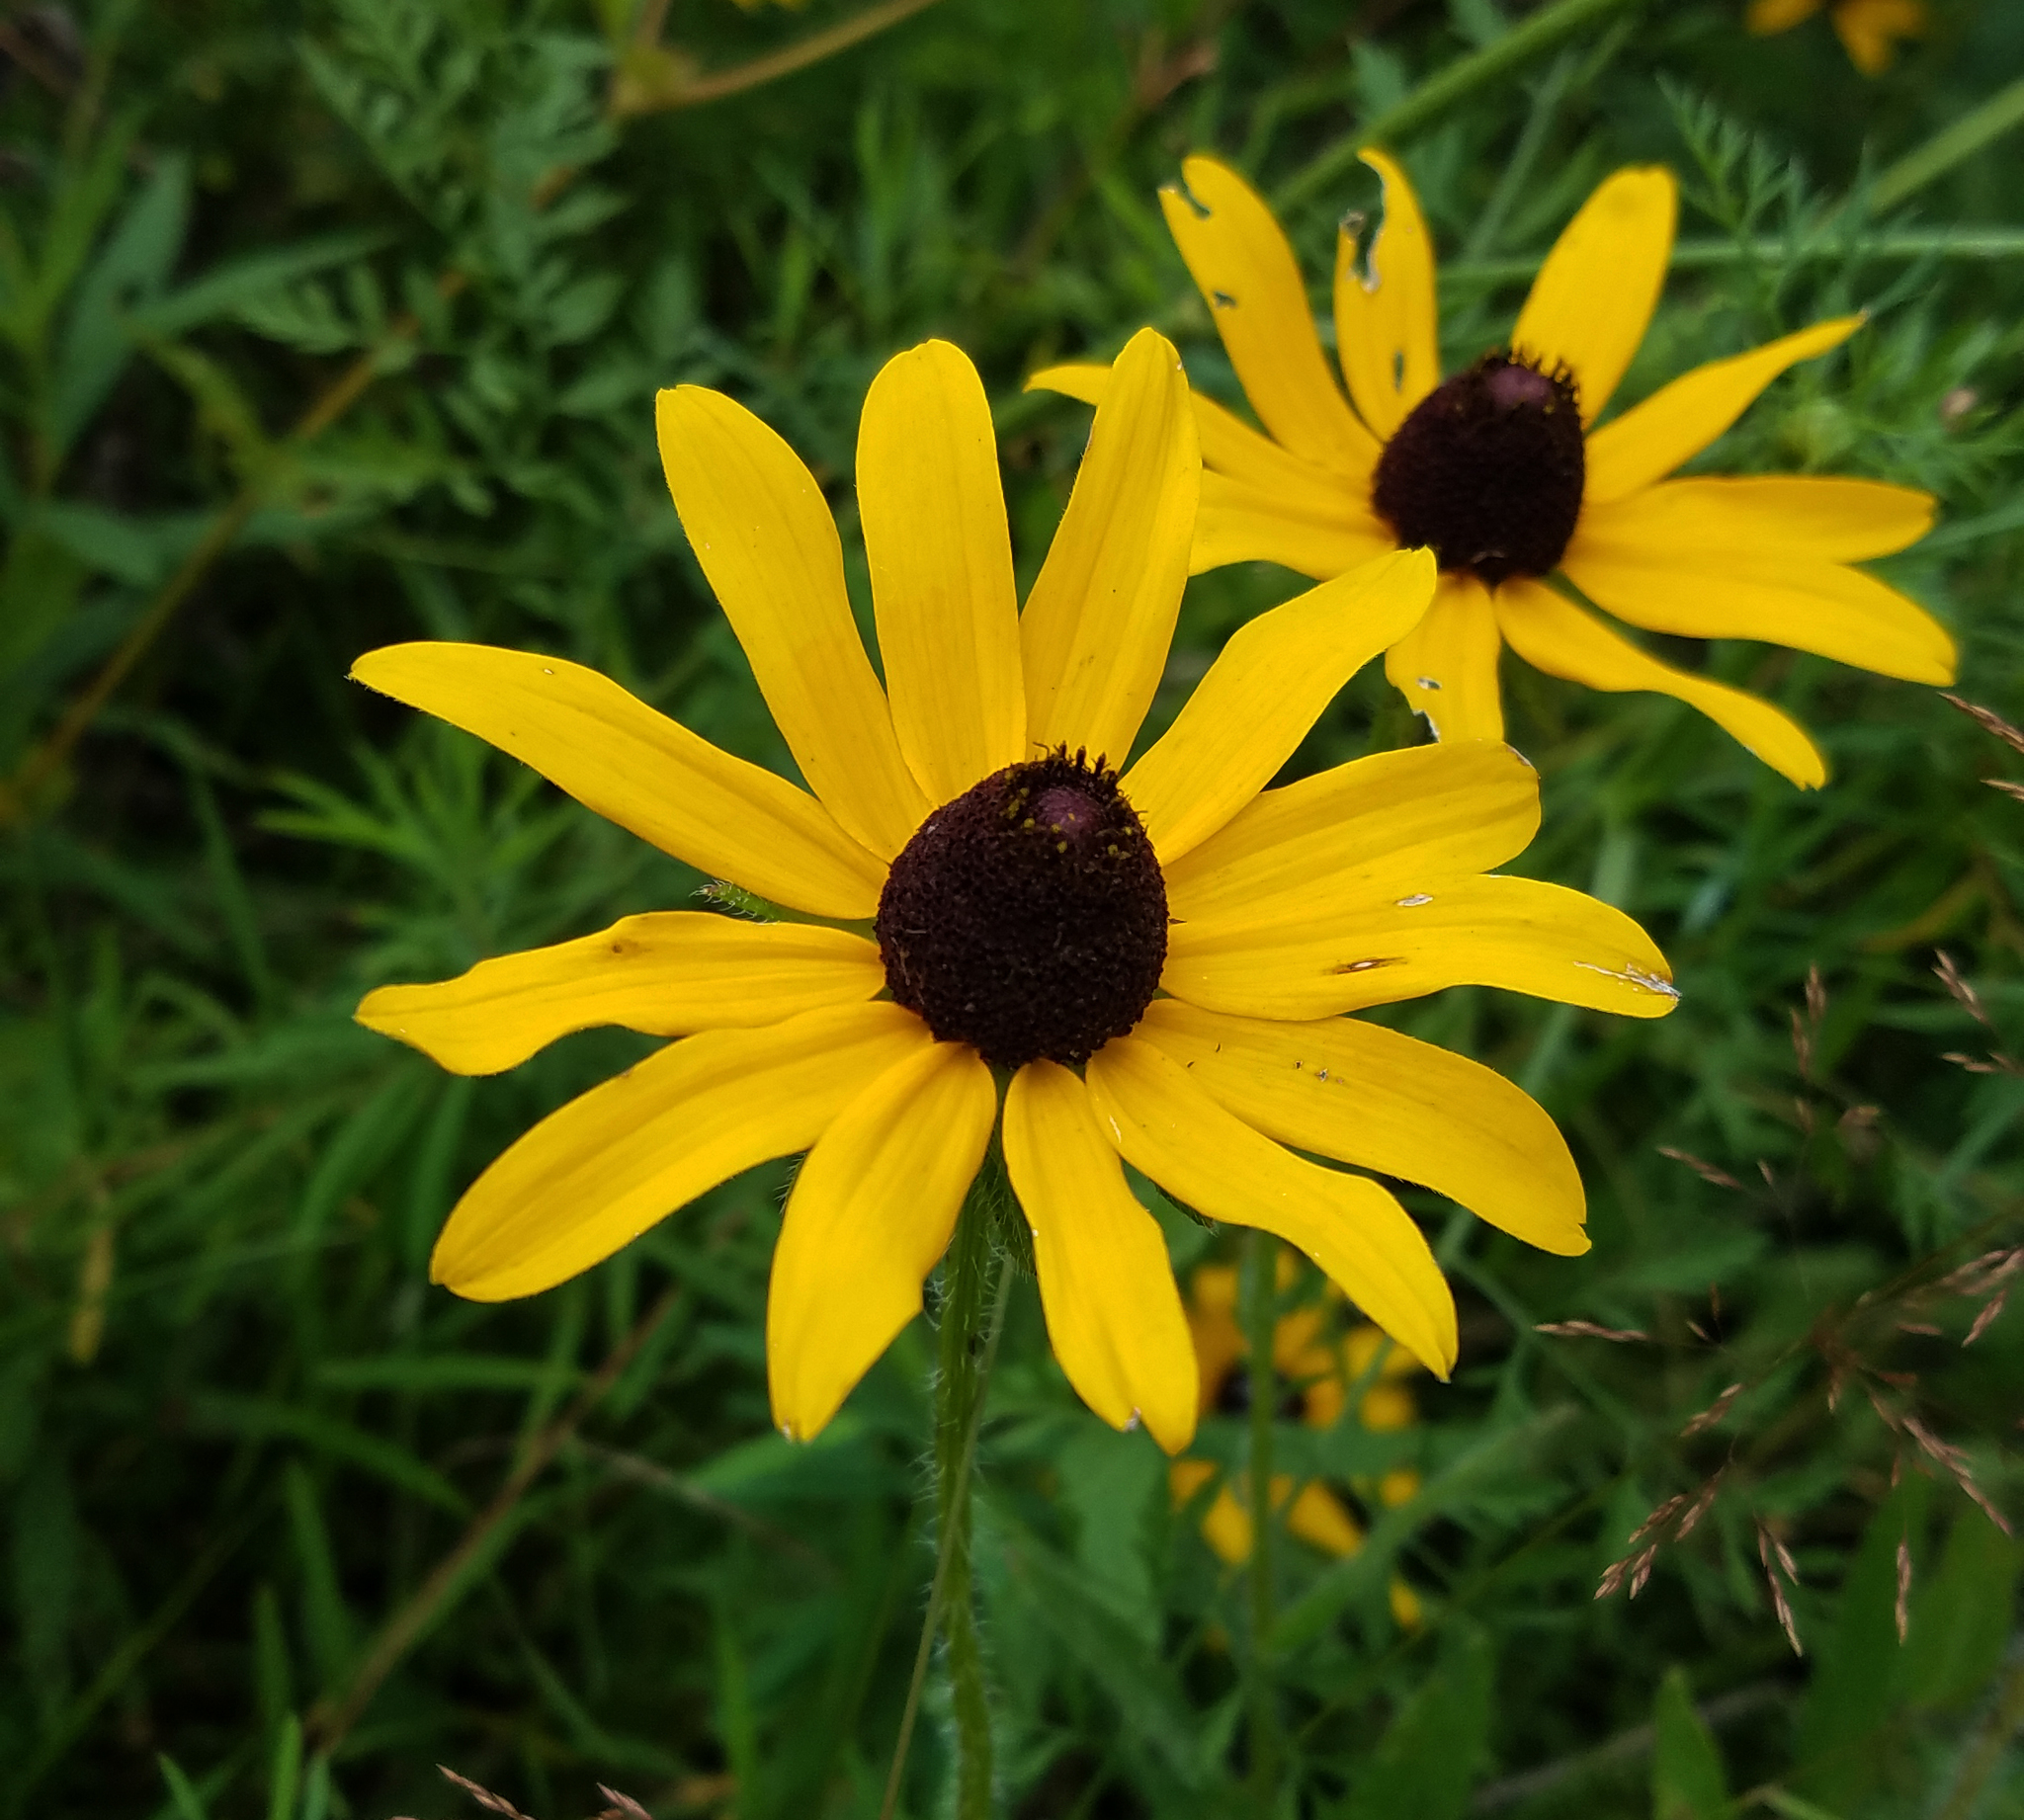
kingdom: Plantae
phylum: Tracheophyta
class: Magnoliopsida
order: Asterales
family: Asteraceae
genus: Rudbeckia
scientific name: Rudbeckia hirta
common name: Black-eyed-susan
